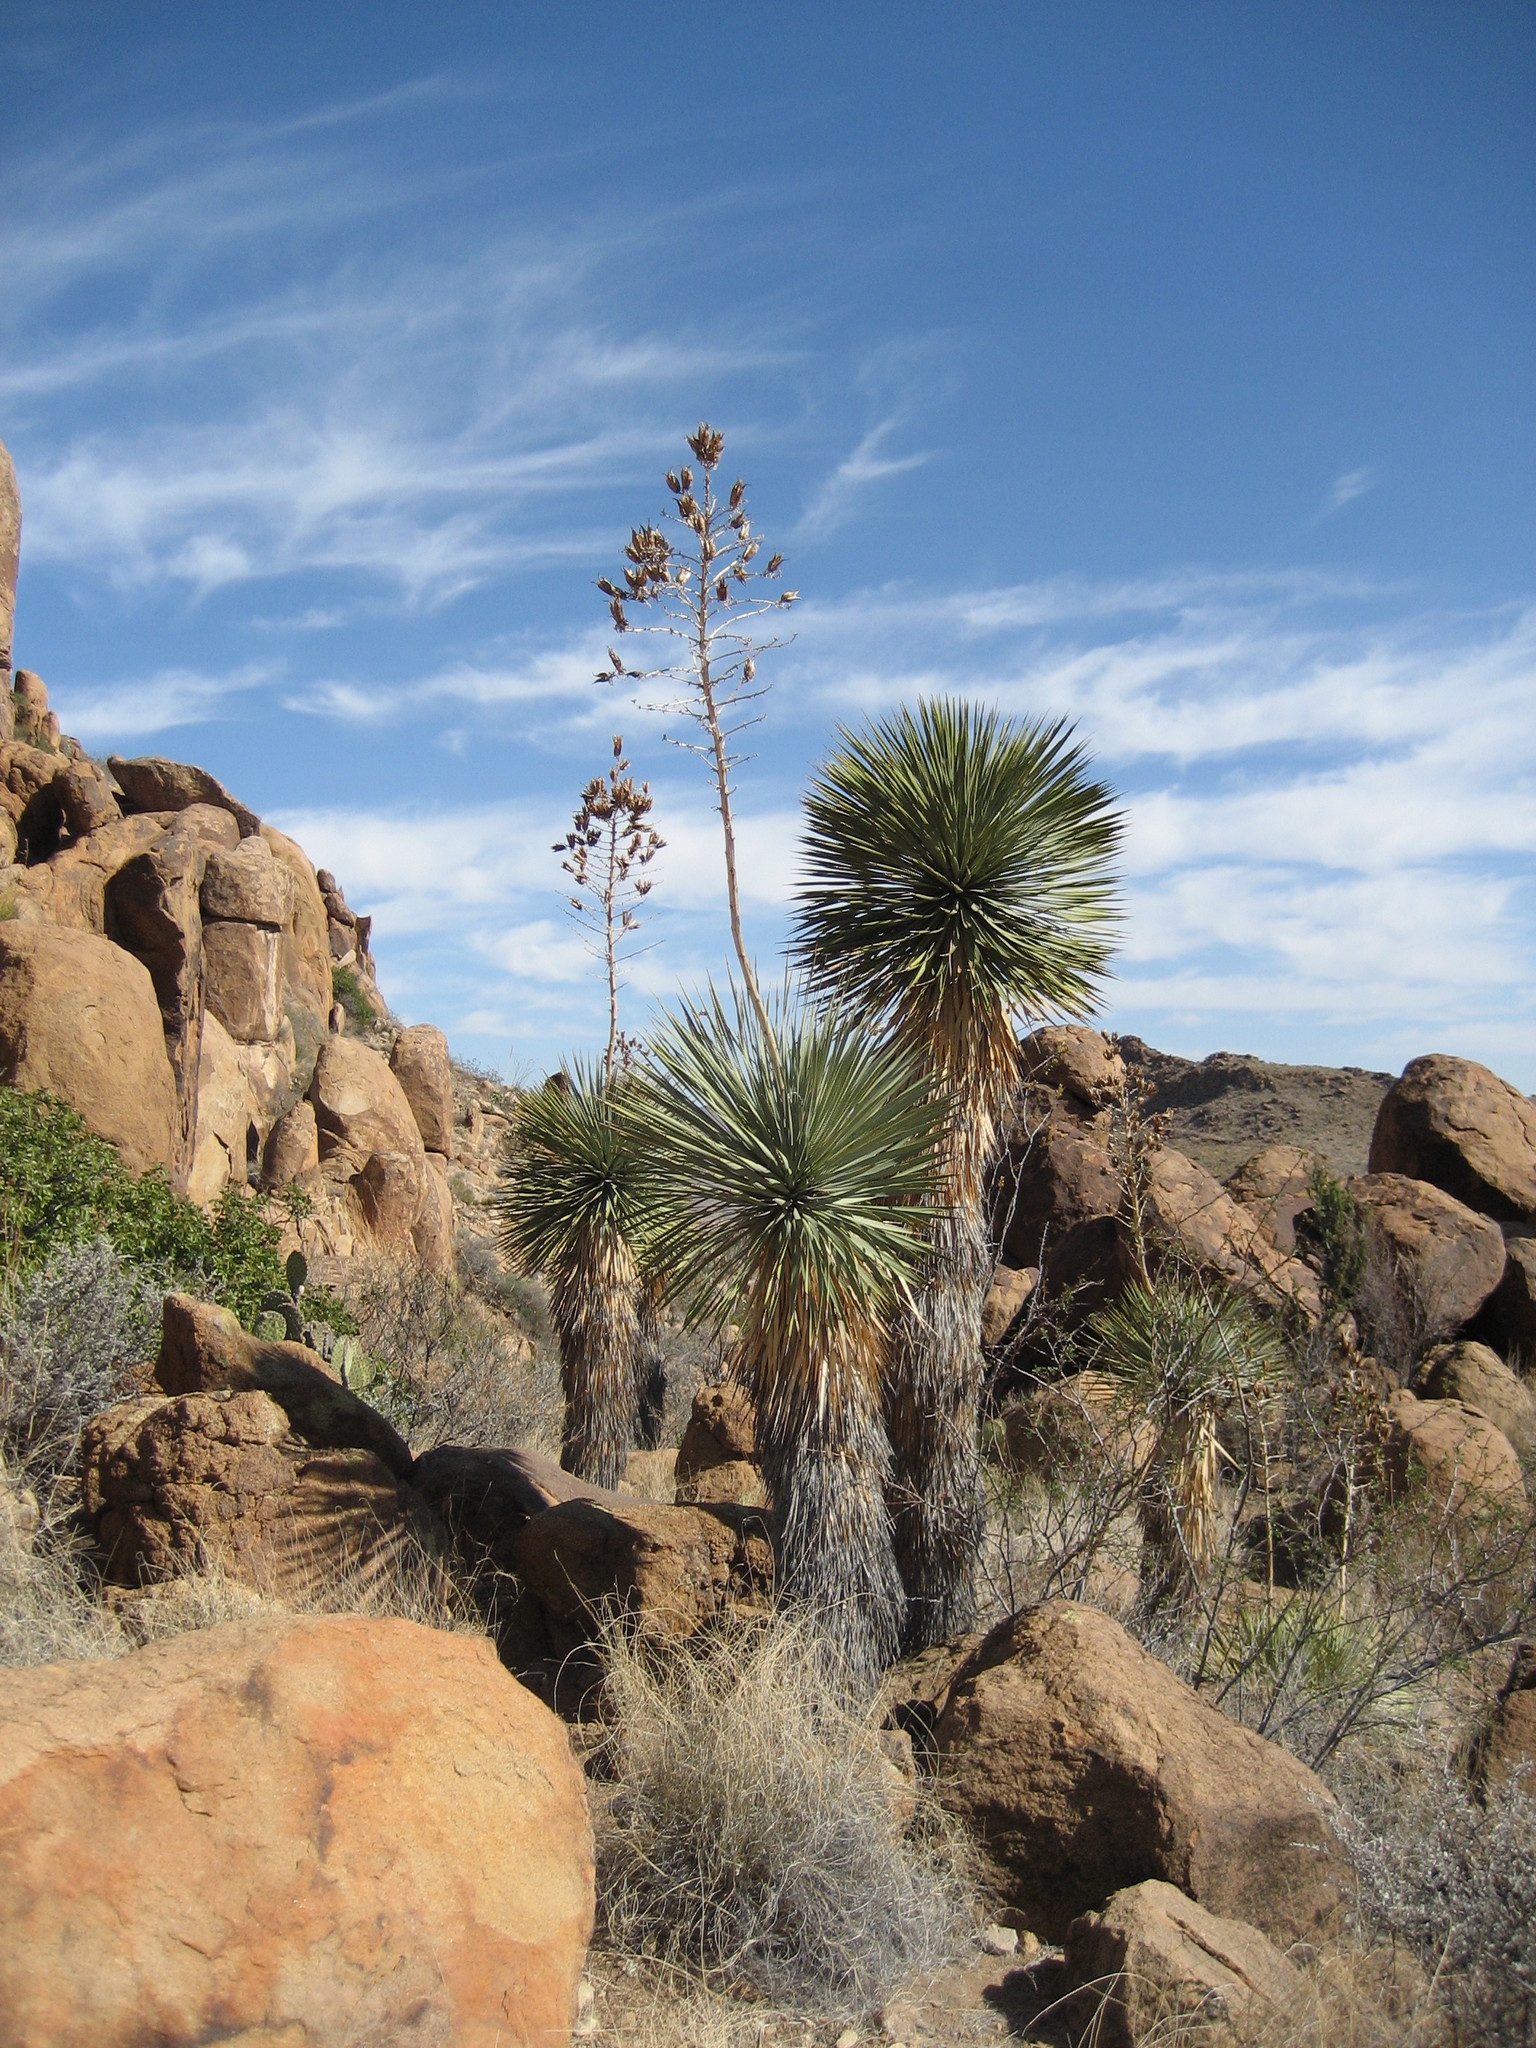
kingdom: Plantae
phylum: Tracheophyta
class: Liliopsida
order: Asparagales
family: Asparagaceae
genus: Yucca
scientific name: Yucca rostrata
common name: Big bend yucca
